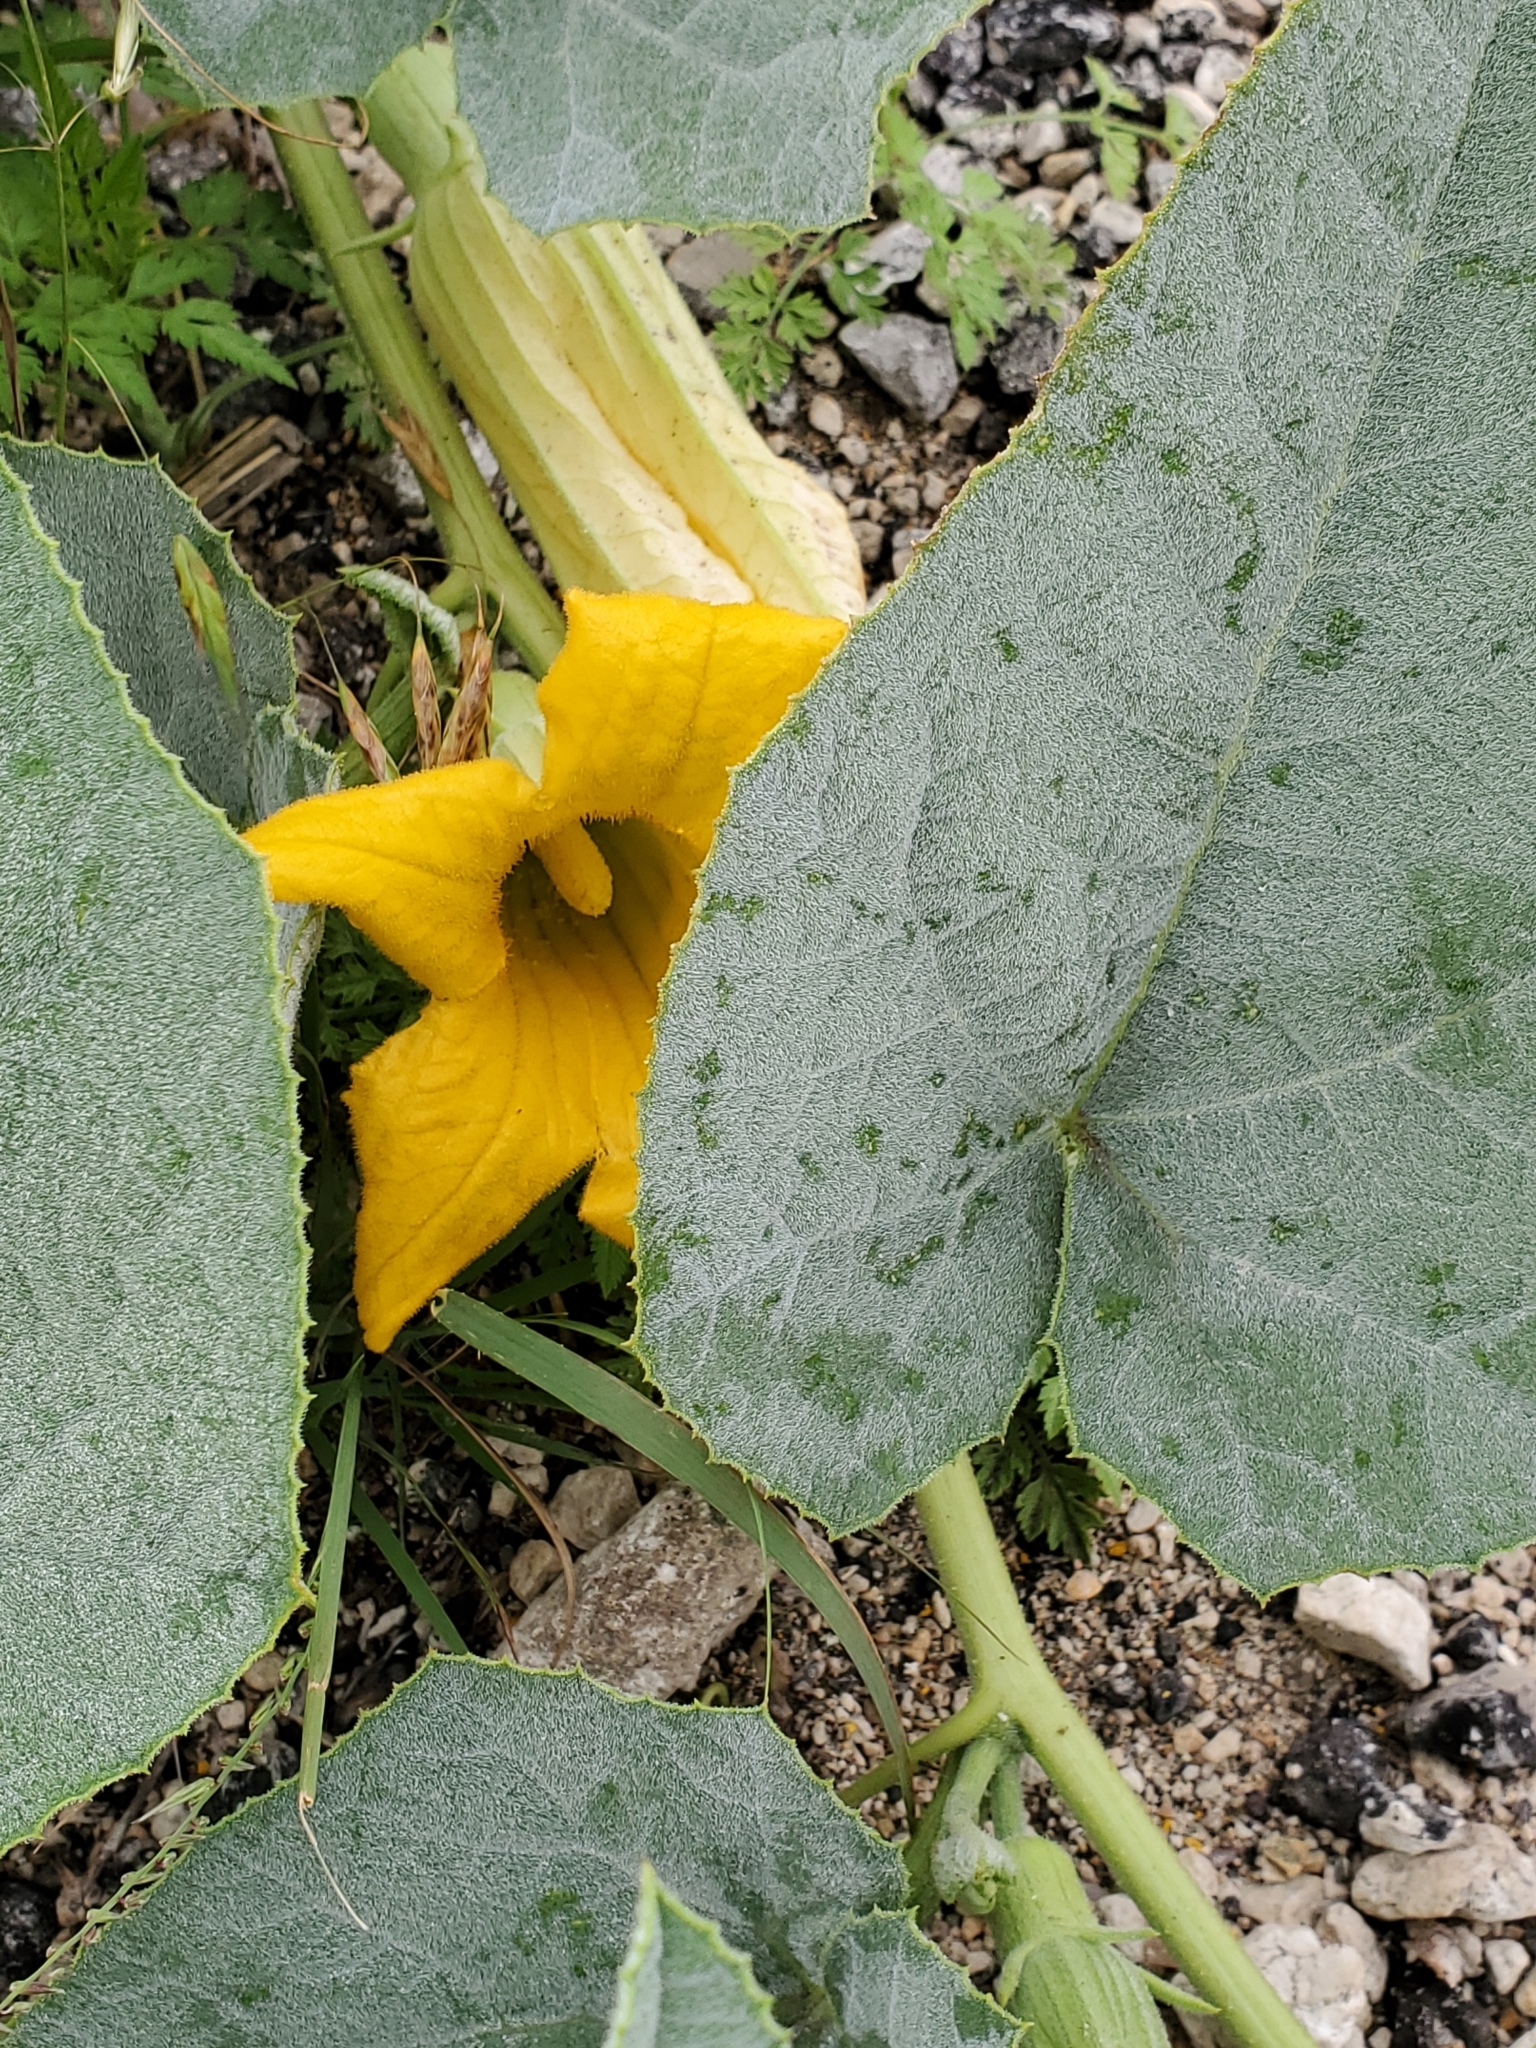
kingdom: Plantae
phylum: Tracheophyta
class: Magnoliopsida
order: Cucurbitales
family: Cucurbitaceae
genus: Cucurbita
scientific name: Cucurbita foetidissima
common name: Buffalo gourd
